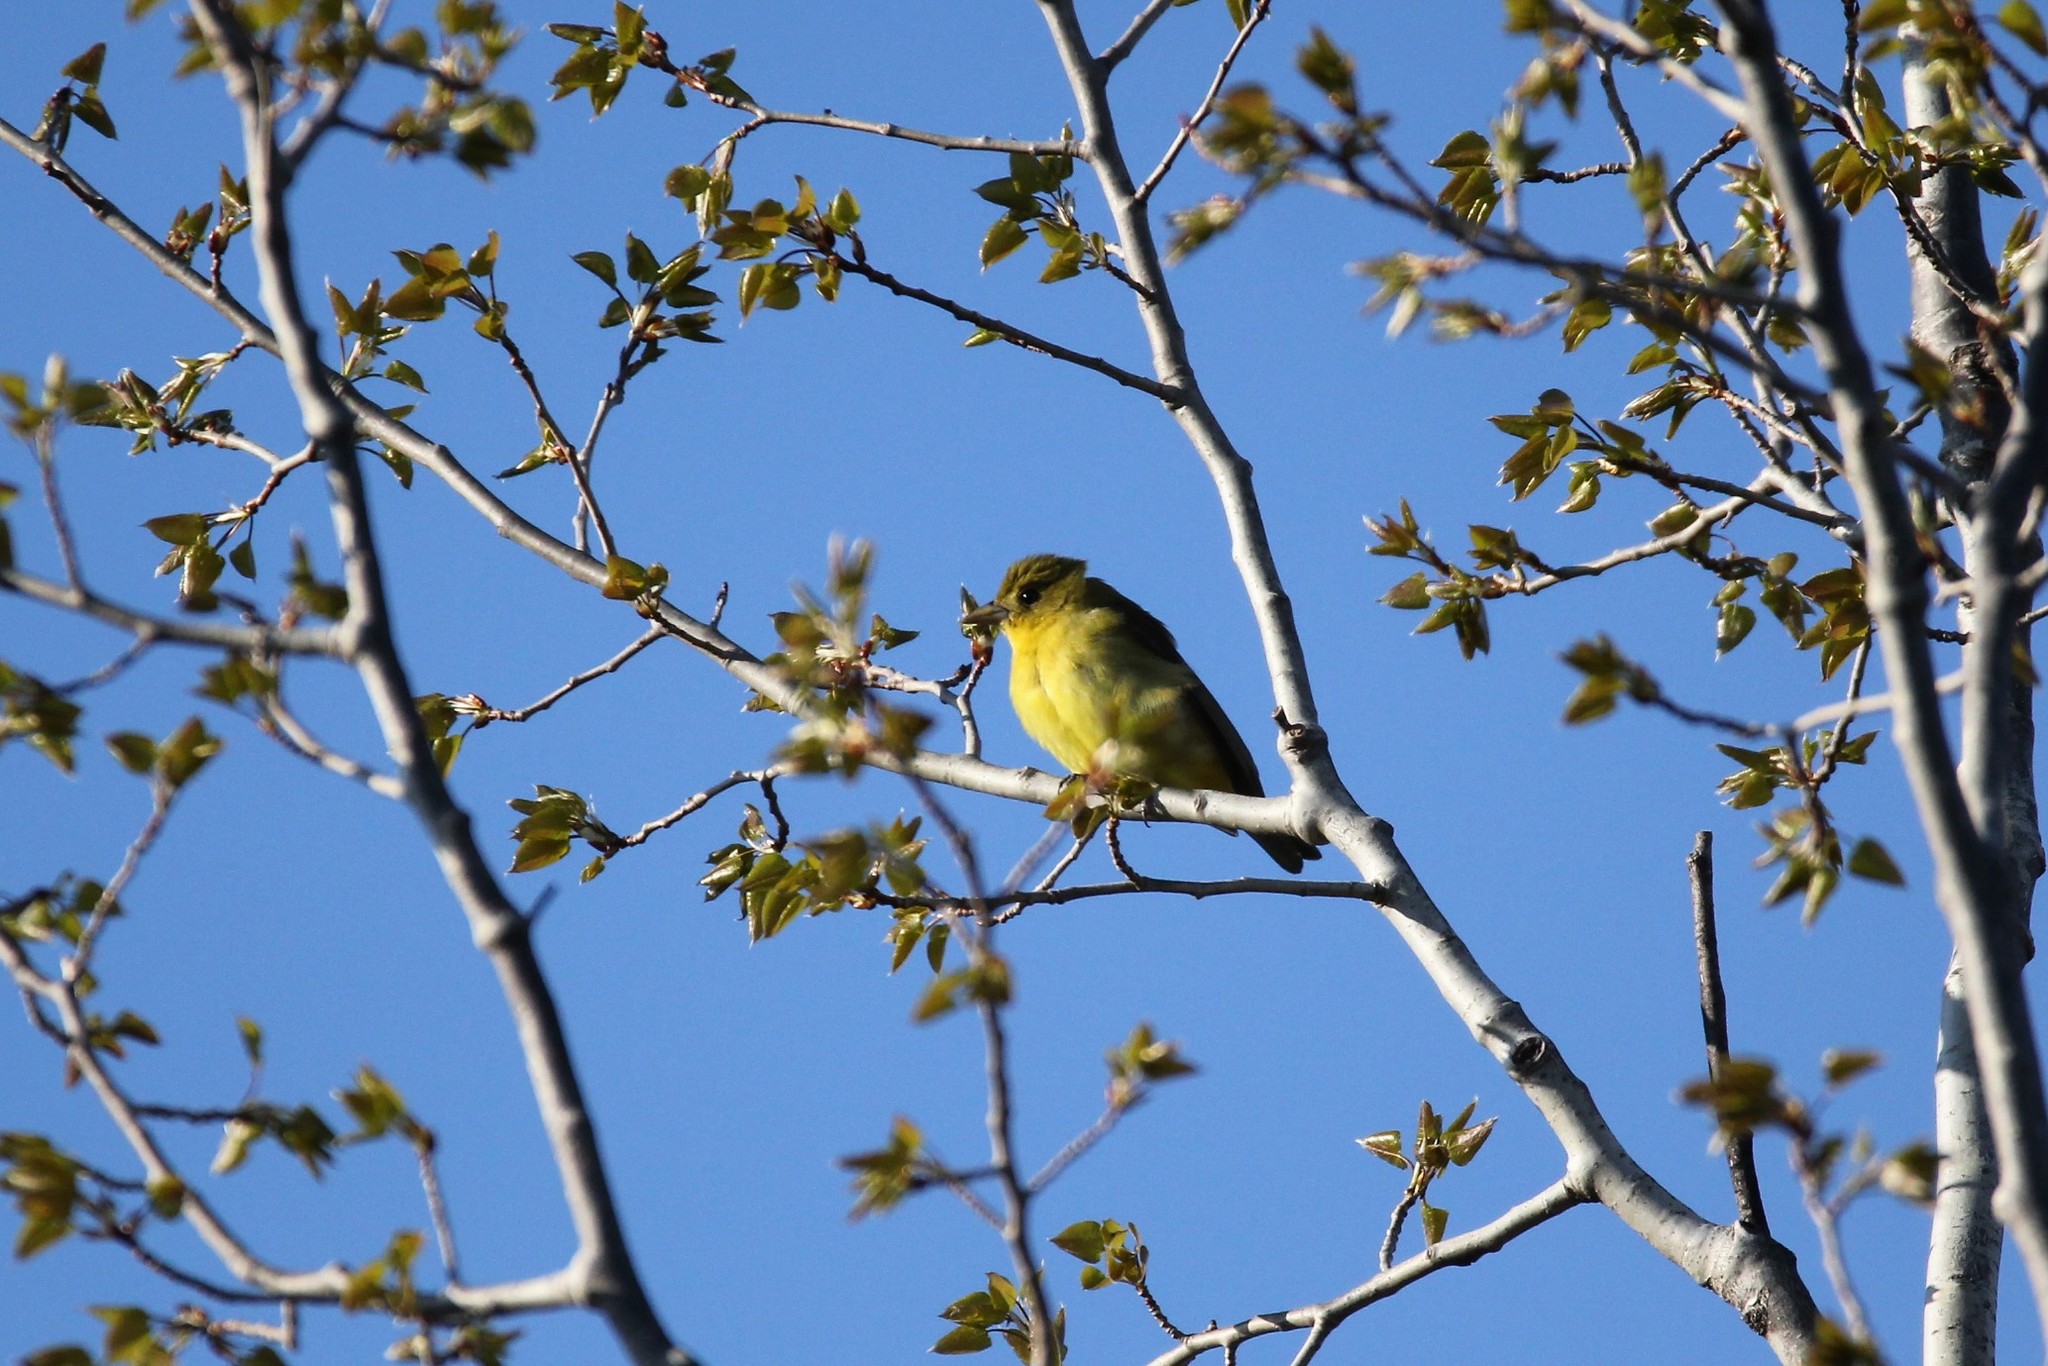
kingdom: Animalia
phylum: Chordata
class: Aves
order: Passeriformes
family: Cardinalidae
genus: Piranga
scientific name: Piranga olivacea
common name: Scarlet tanager
